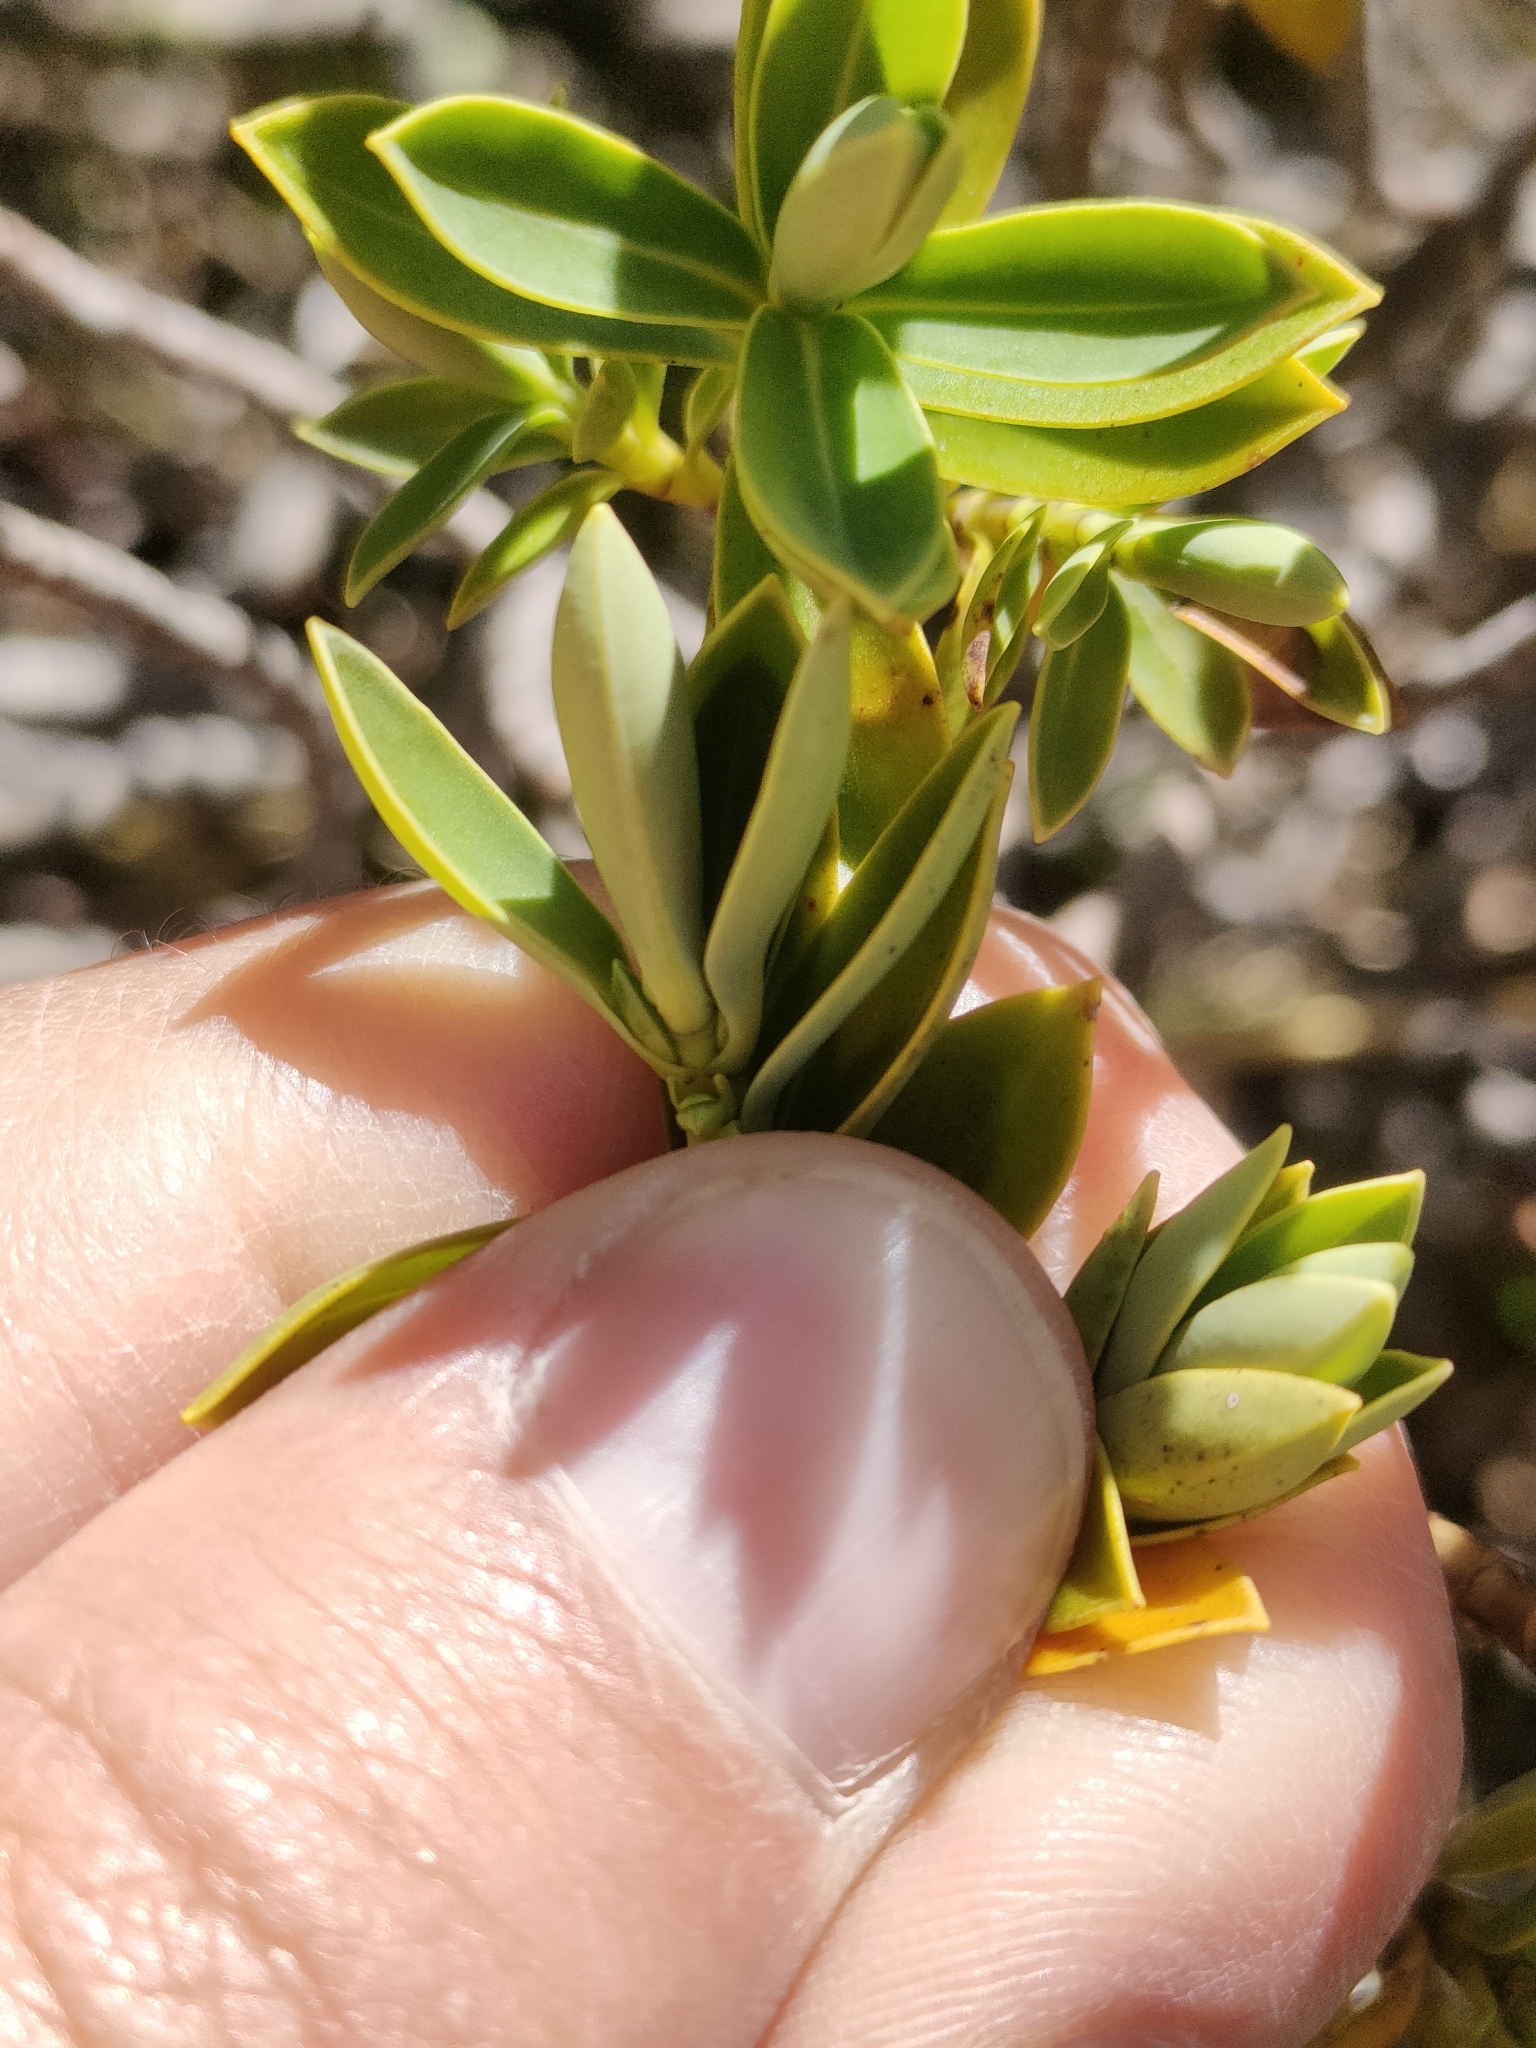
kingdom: Plantae
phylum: Tracheophyta
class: Magnoliopsida
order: Lamiales
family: Plantaginaceae
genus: Veronica
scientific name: Veronica topiaria
